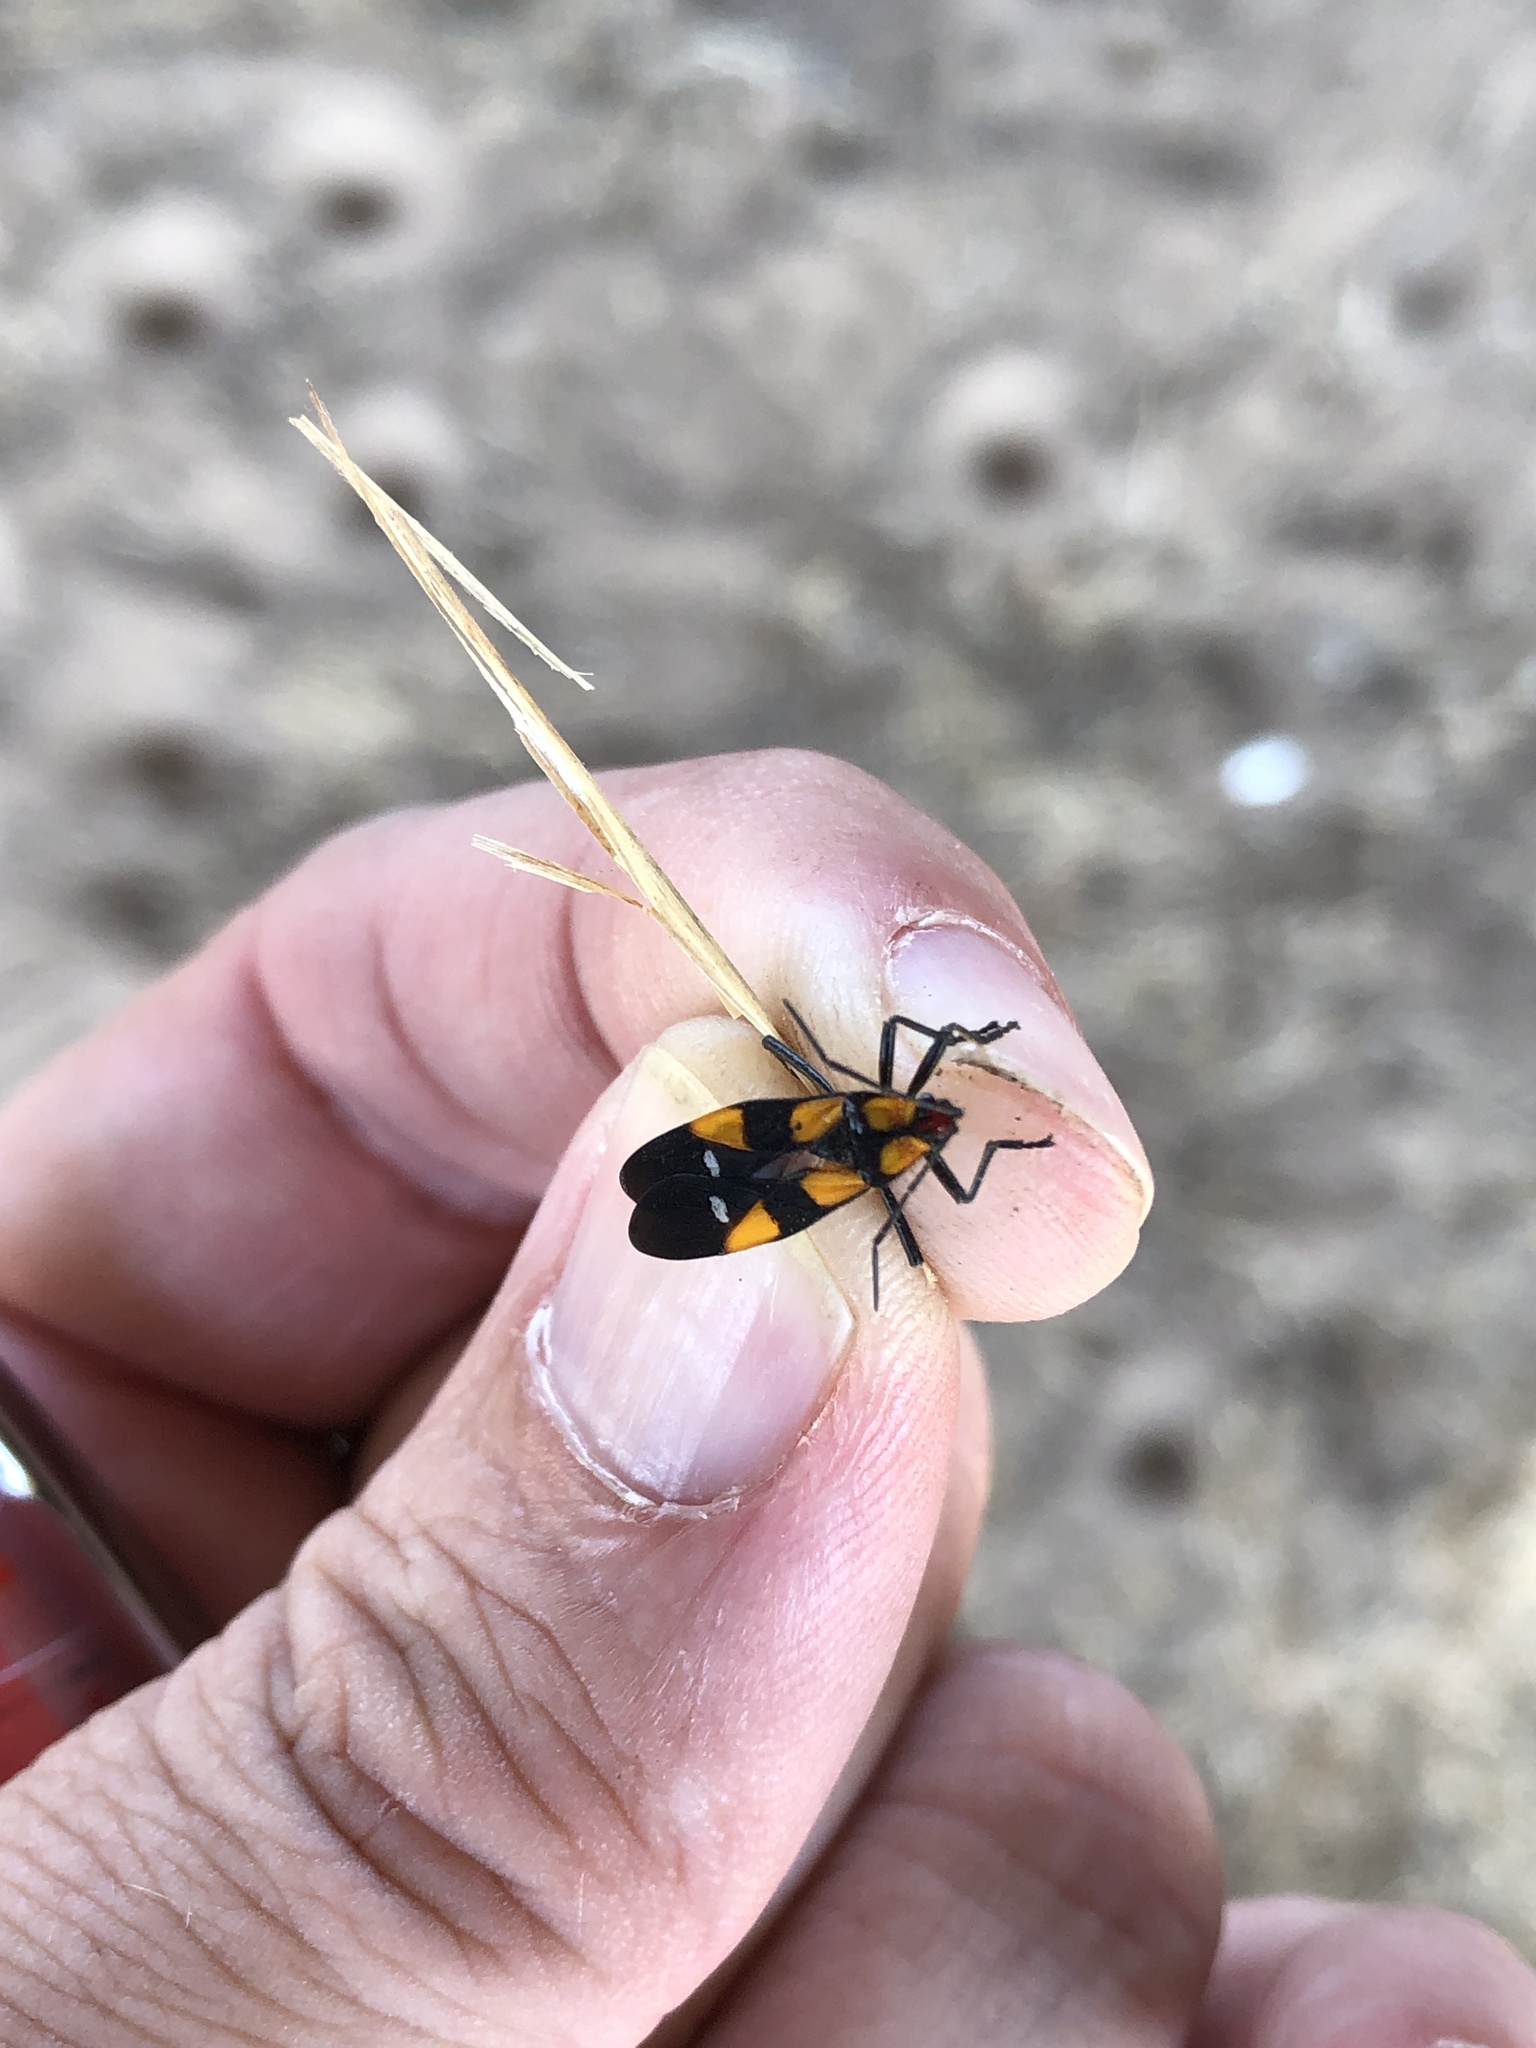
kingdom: Animalia
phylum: Arthropoda
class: Insecta
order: Hemiptera
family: Lygaeidae
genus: Oncopeltus
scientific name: Oncopeltus sexmaculatus
